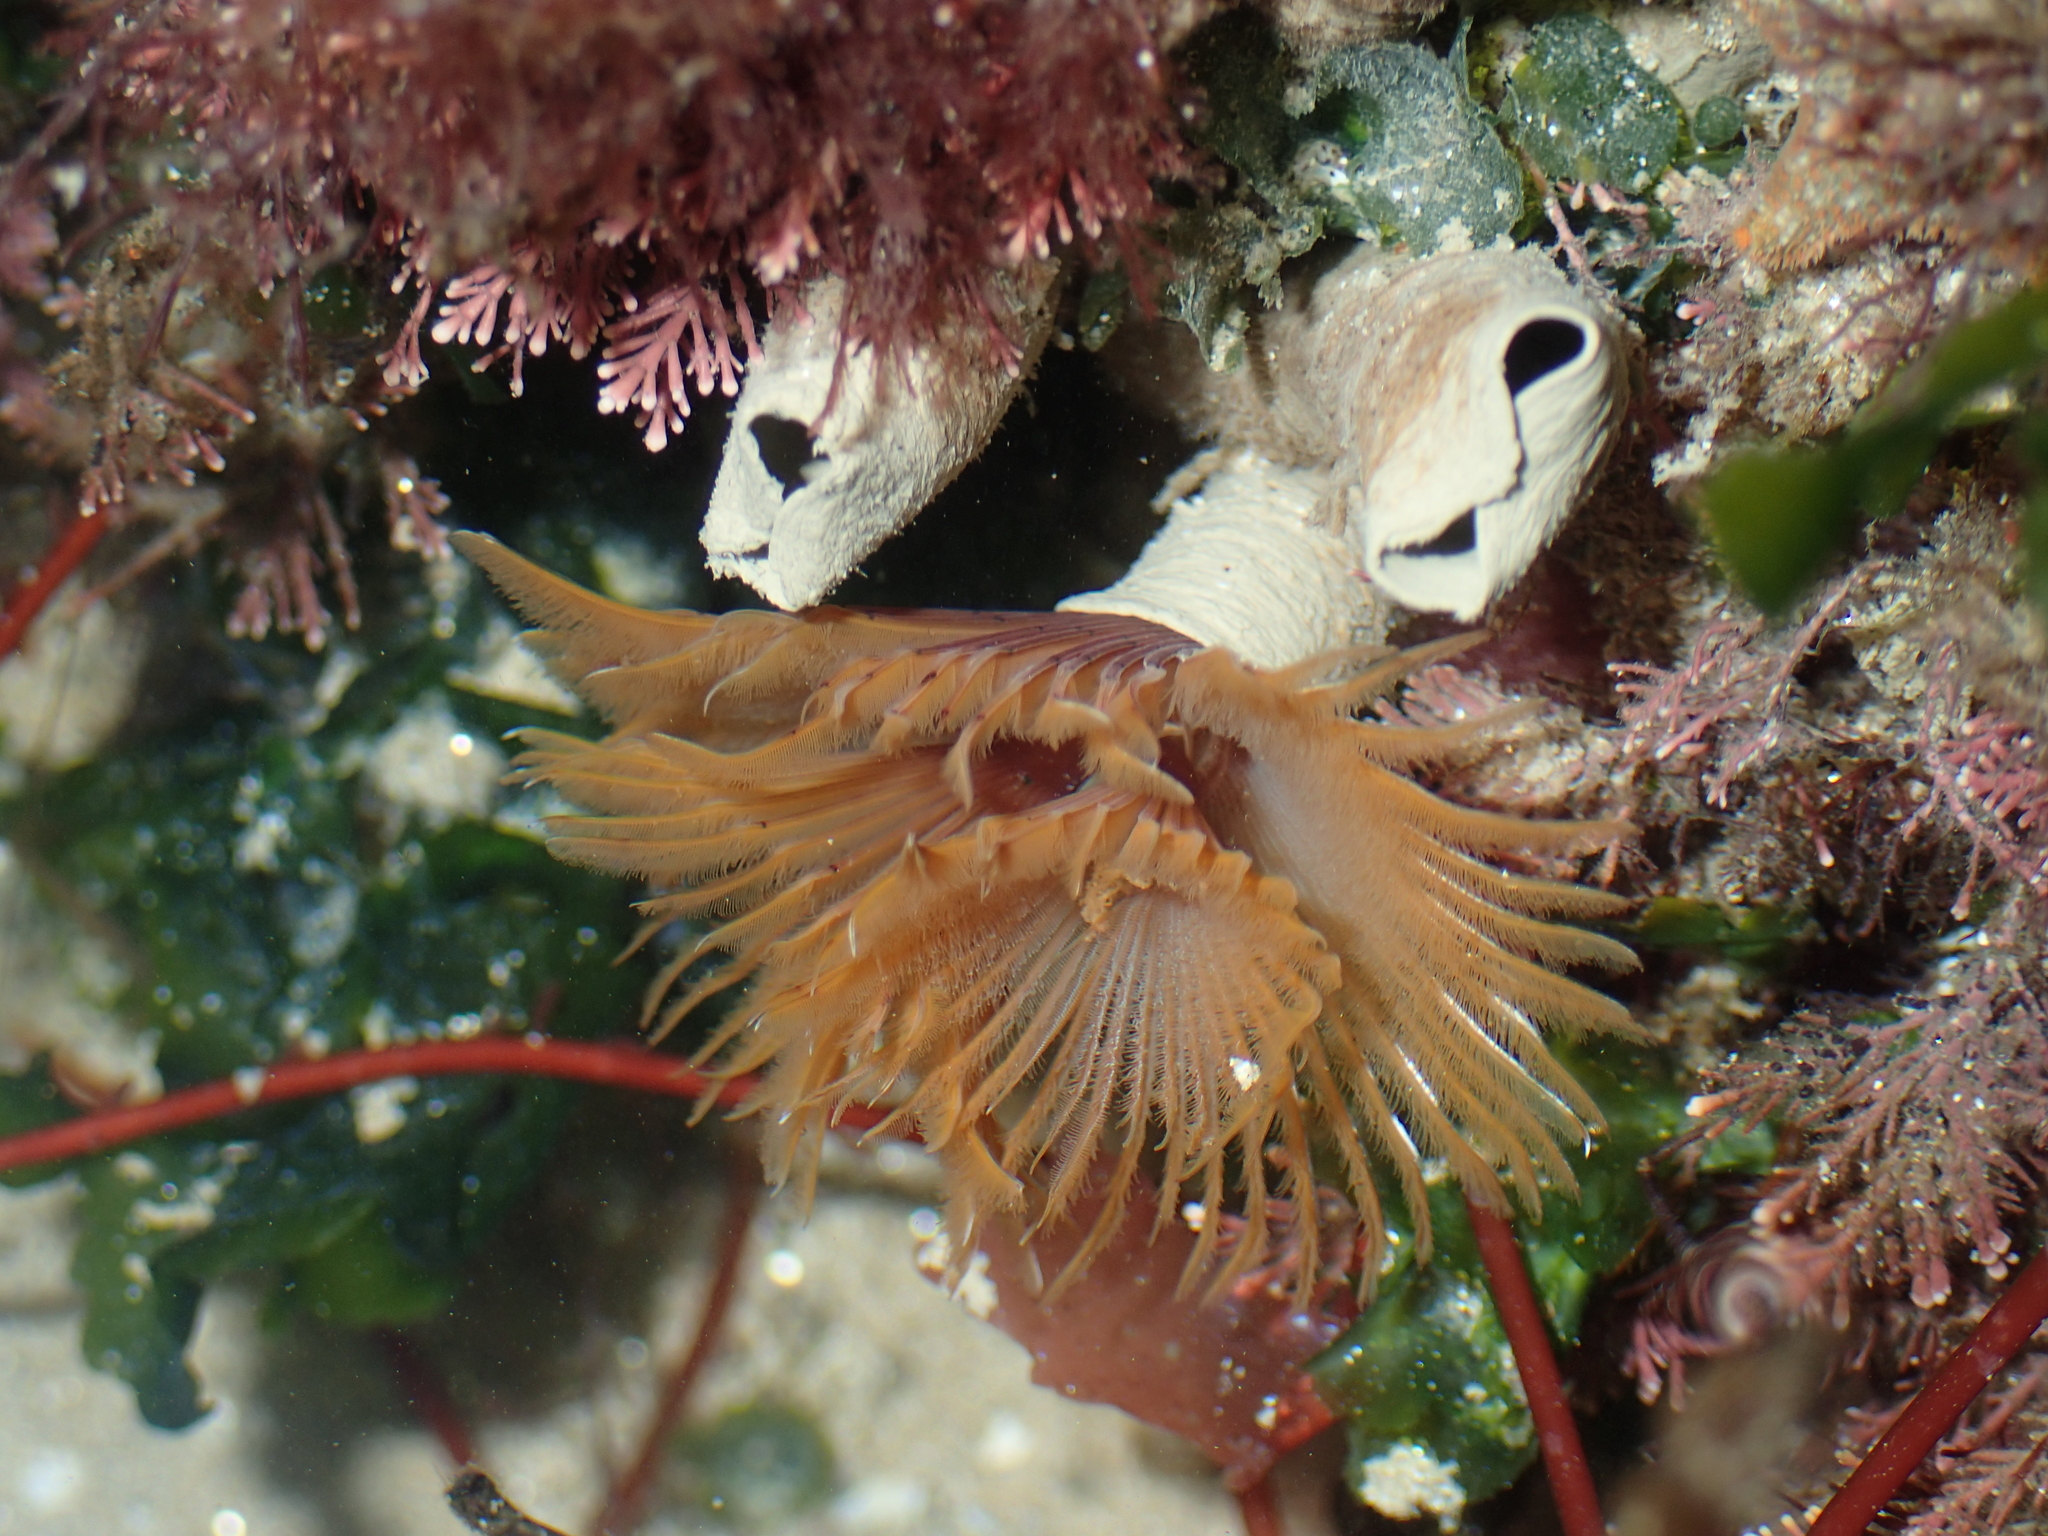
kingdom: Animalia
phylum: Annelida
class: Polychaeta
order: Sabellida
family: Sabellidae
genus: Bispira
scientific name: Bispira volutacornis
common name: Twin fan worm
